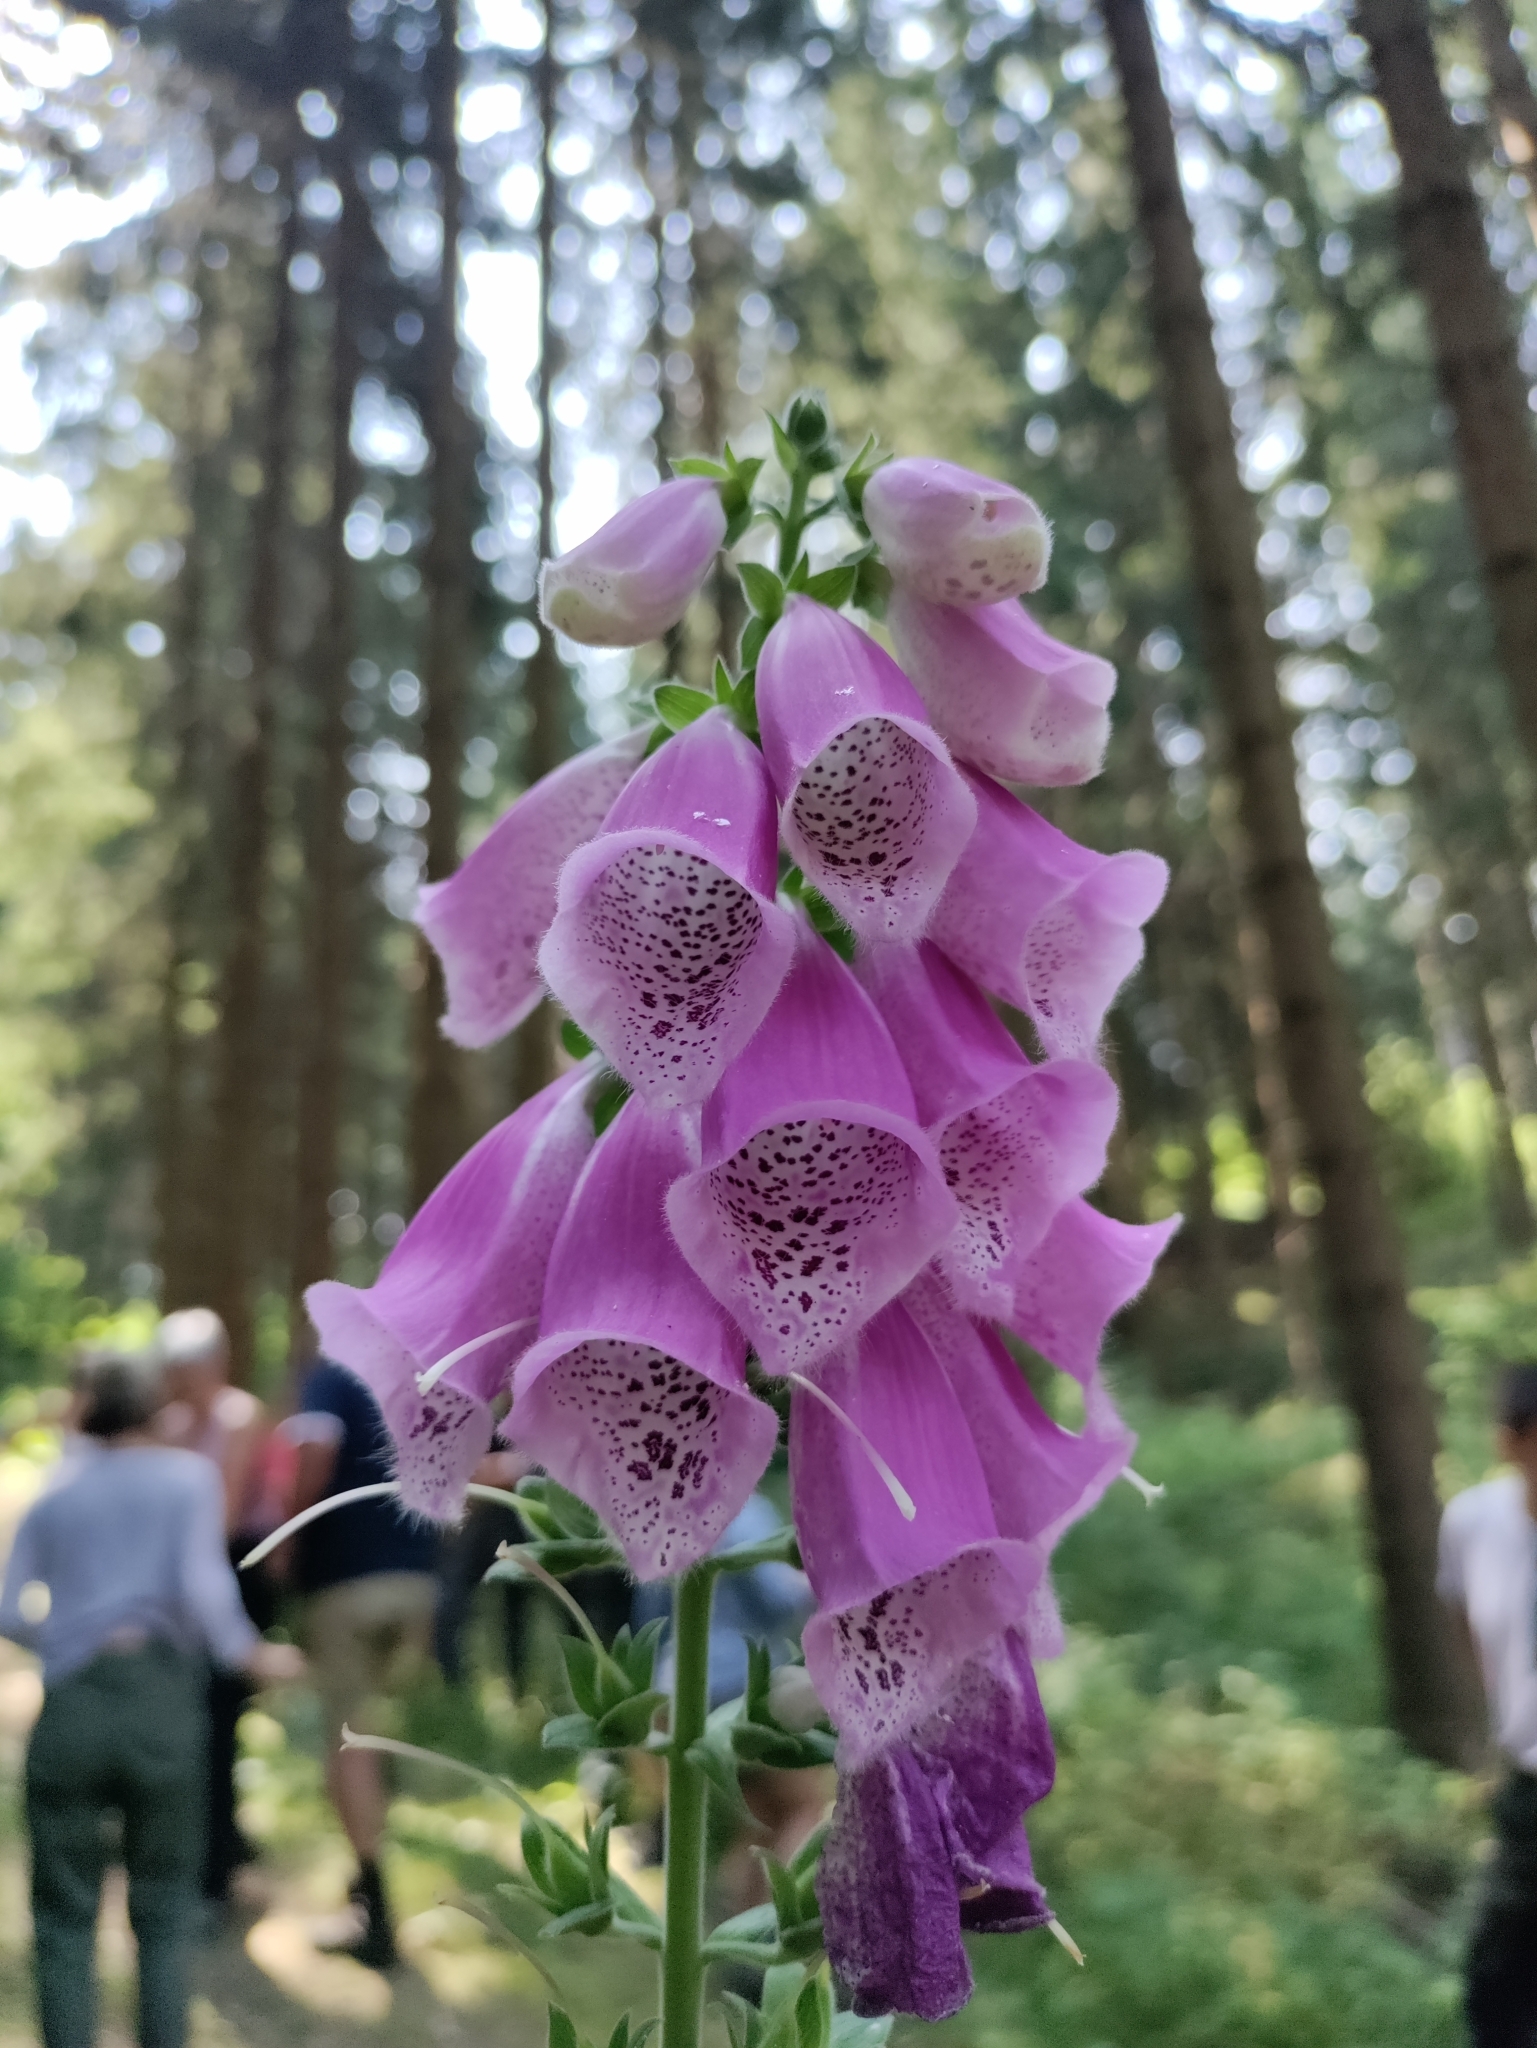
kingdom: Plantae
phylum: Tracheophyta
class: Magnoliopsida
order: Lamiales
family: Plantaginaceae
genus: Digitalis
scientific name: Digitalis purpurea
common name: Foxglove
